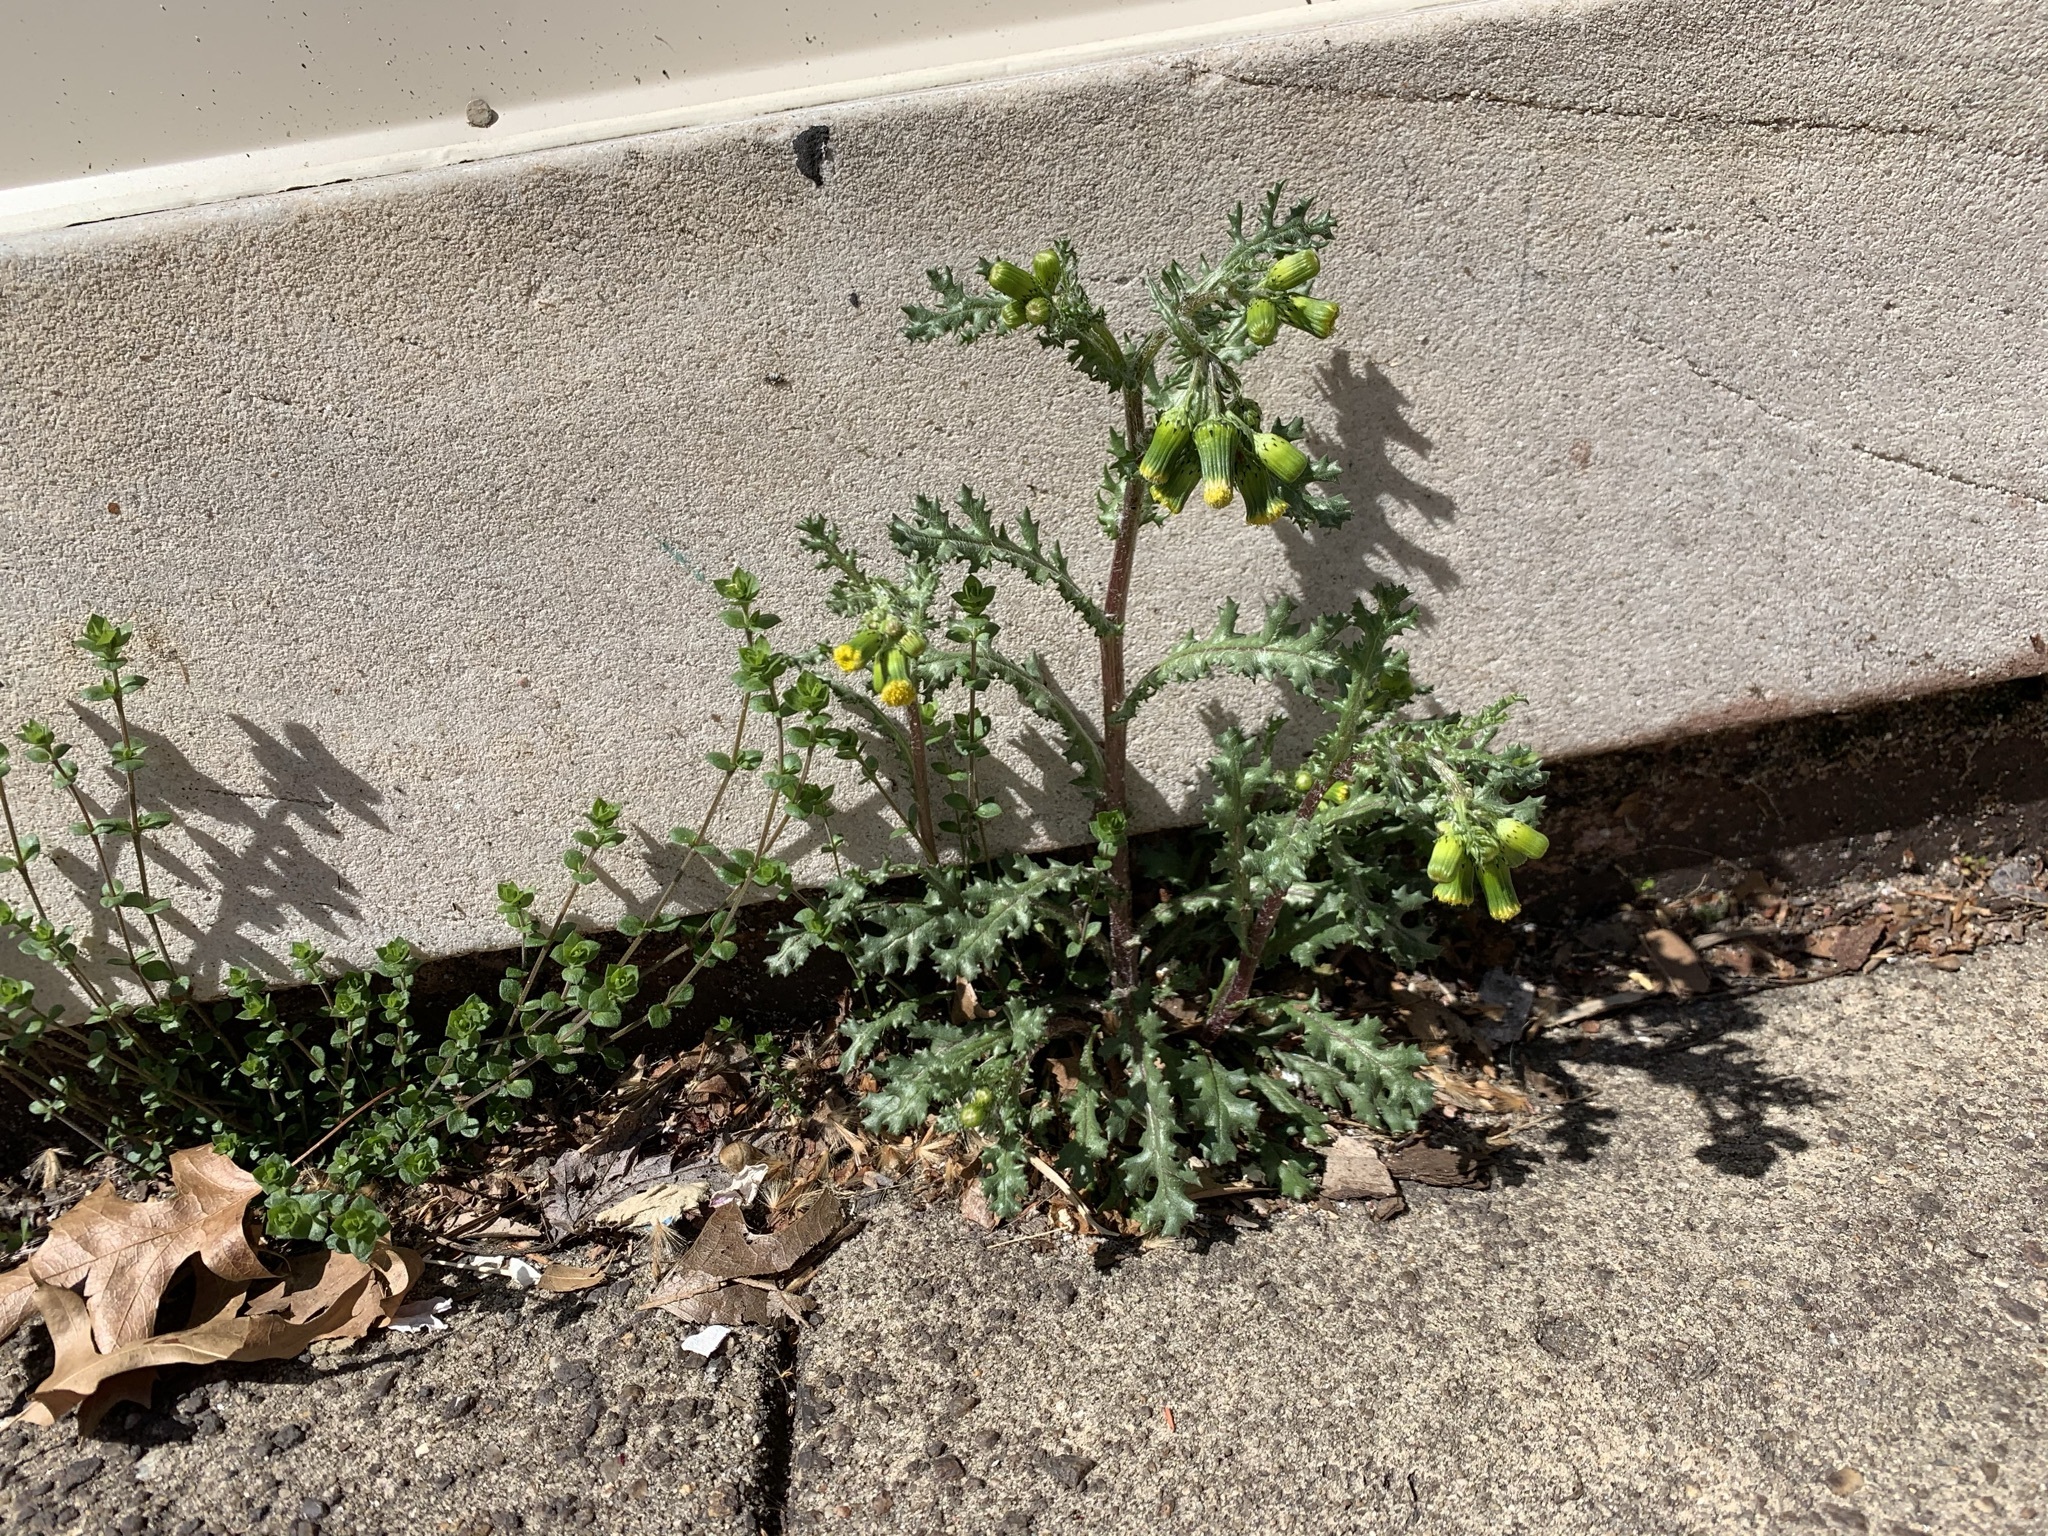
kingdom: Plantae
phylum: Tracheophyta
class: Magnoliopsida
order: Asterales
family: Asteraceae
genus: Senecio
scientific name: Senecio vulgaris
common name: Old-man-in-the-spring
